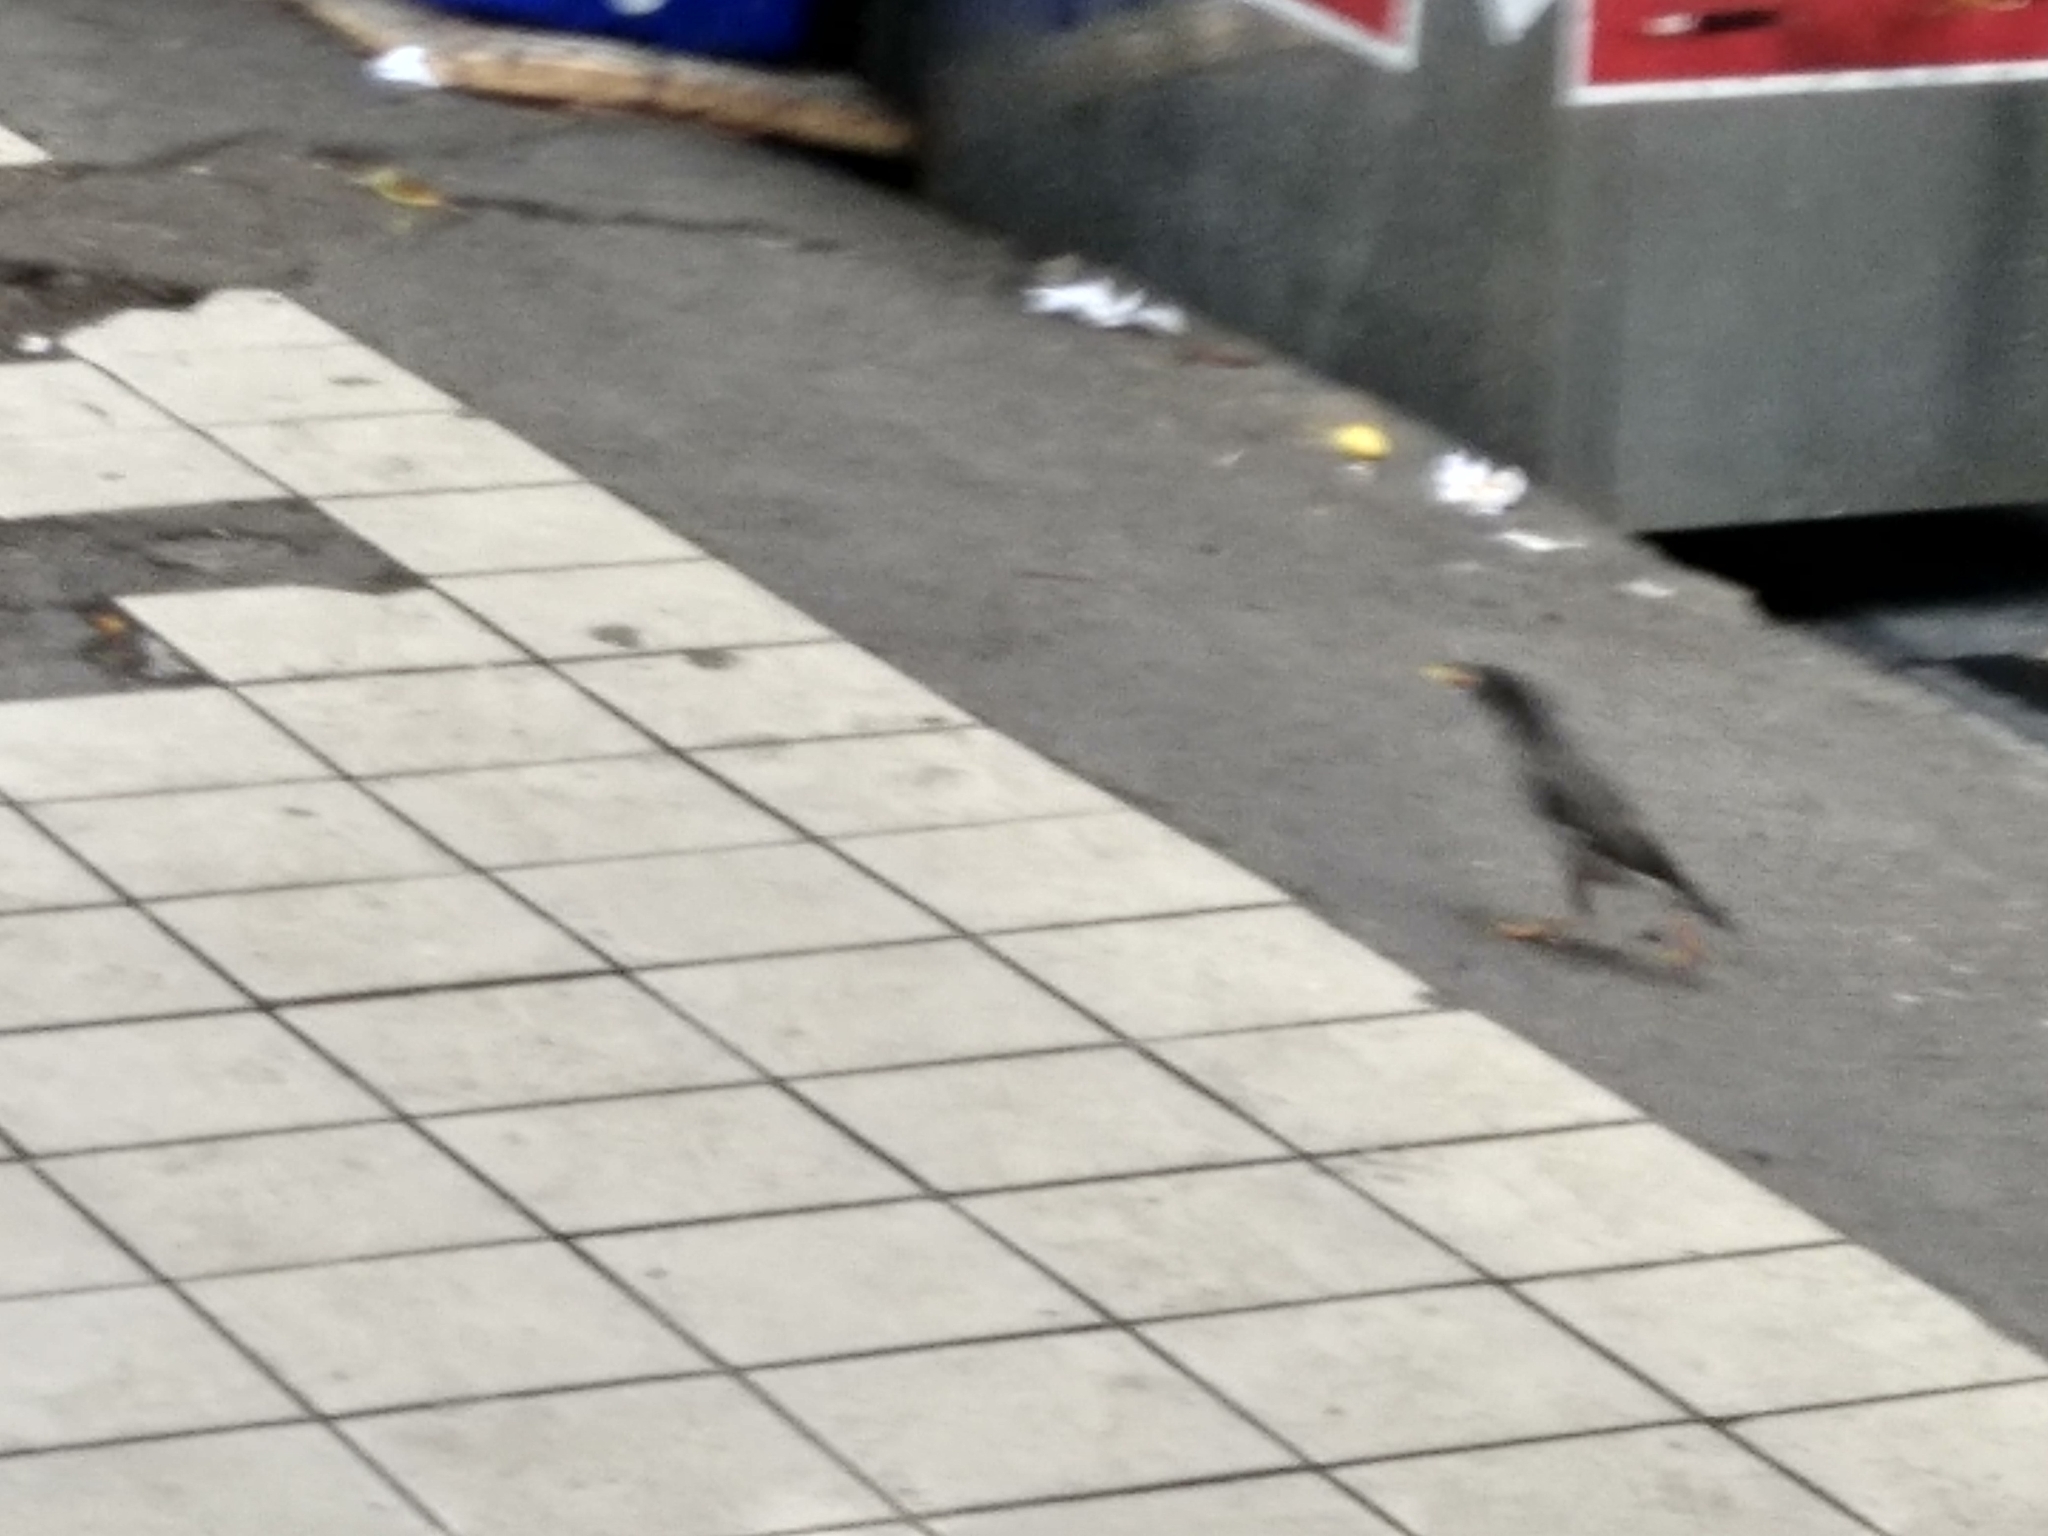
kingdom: Animalia
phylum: Chordata
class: Aves
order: Passeriformes
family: Sturnidae
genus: Acridotheres
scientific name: Acridotheres fuscus
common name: Jungle myna
